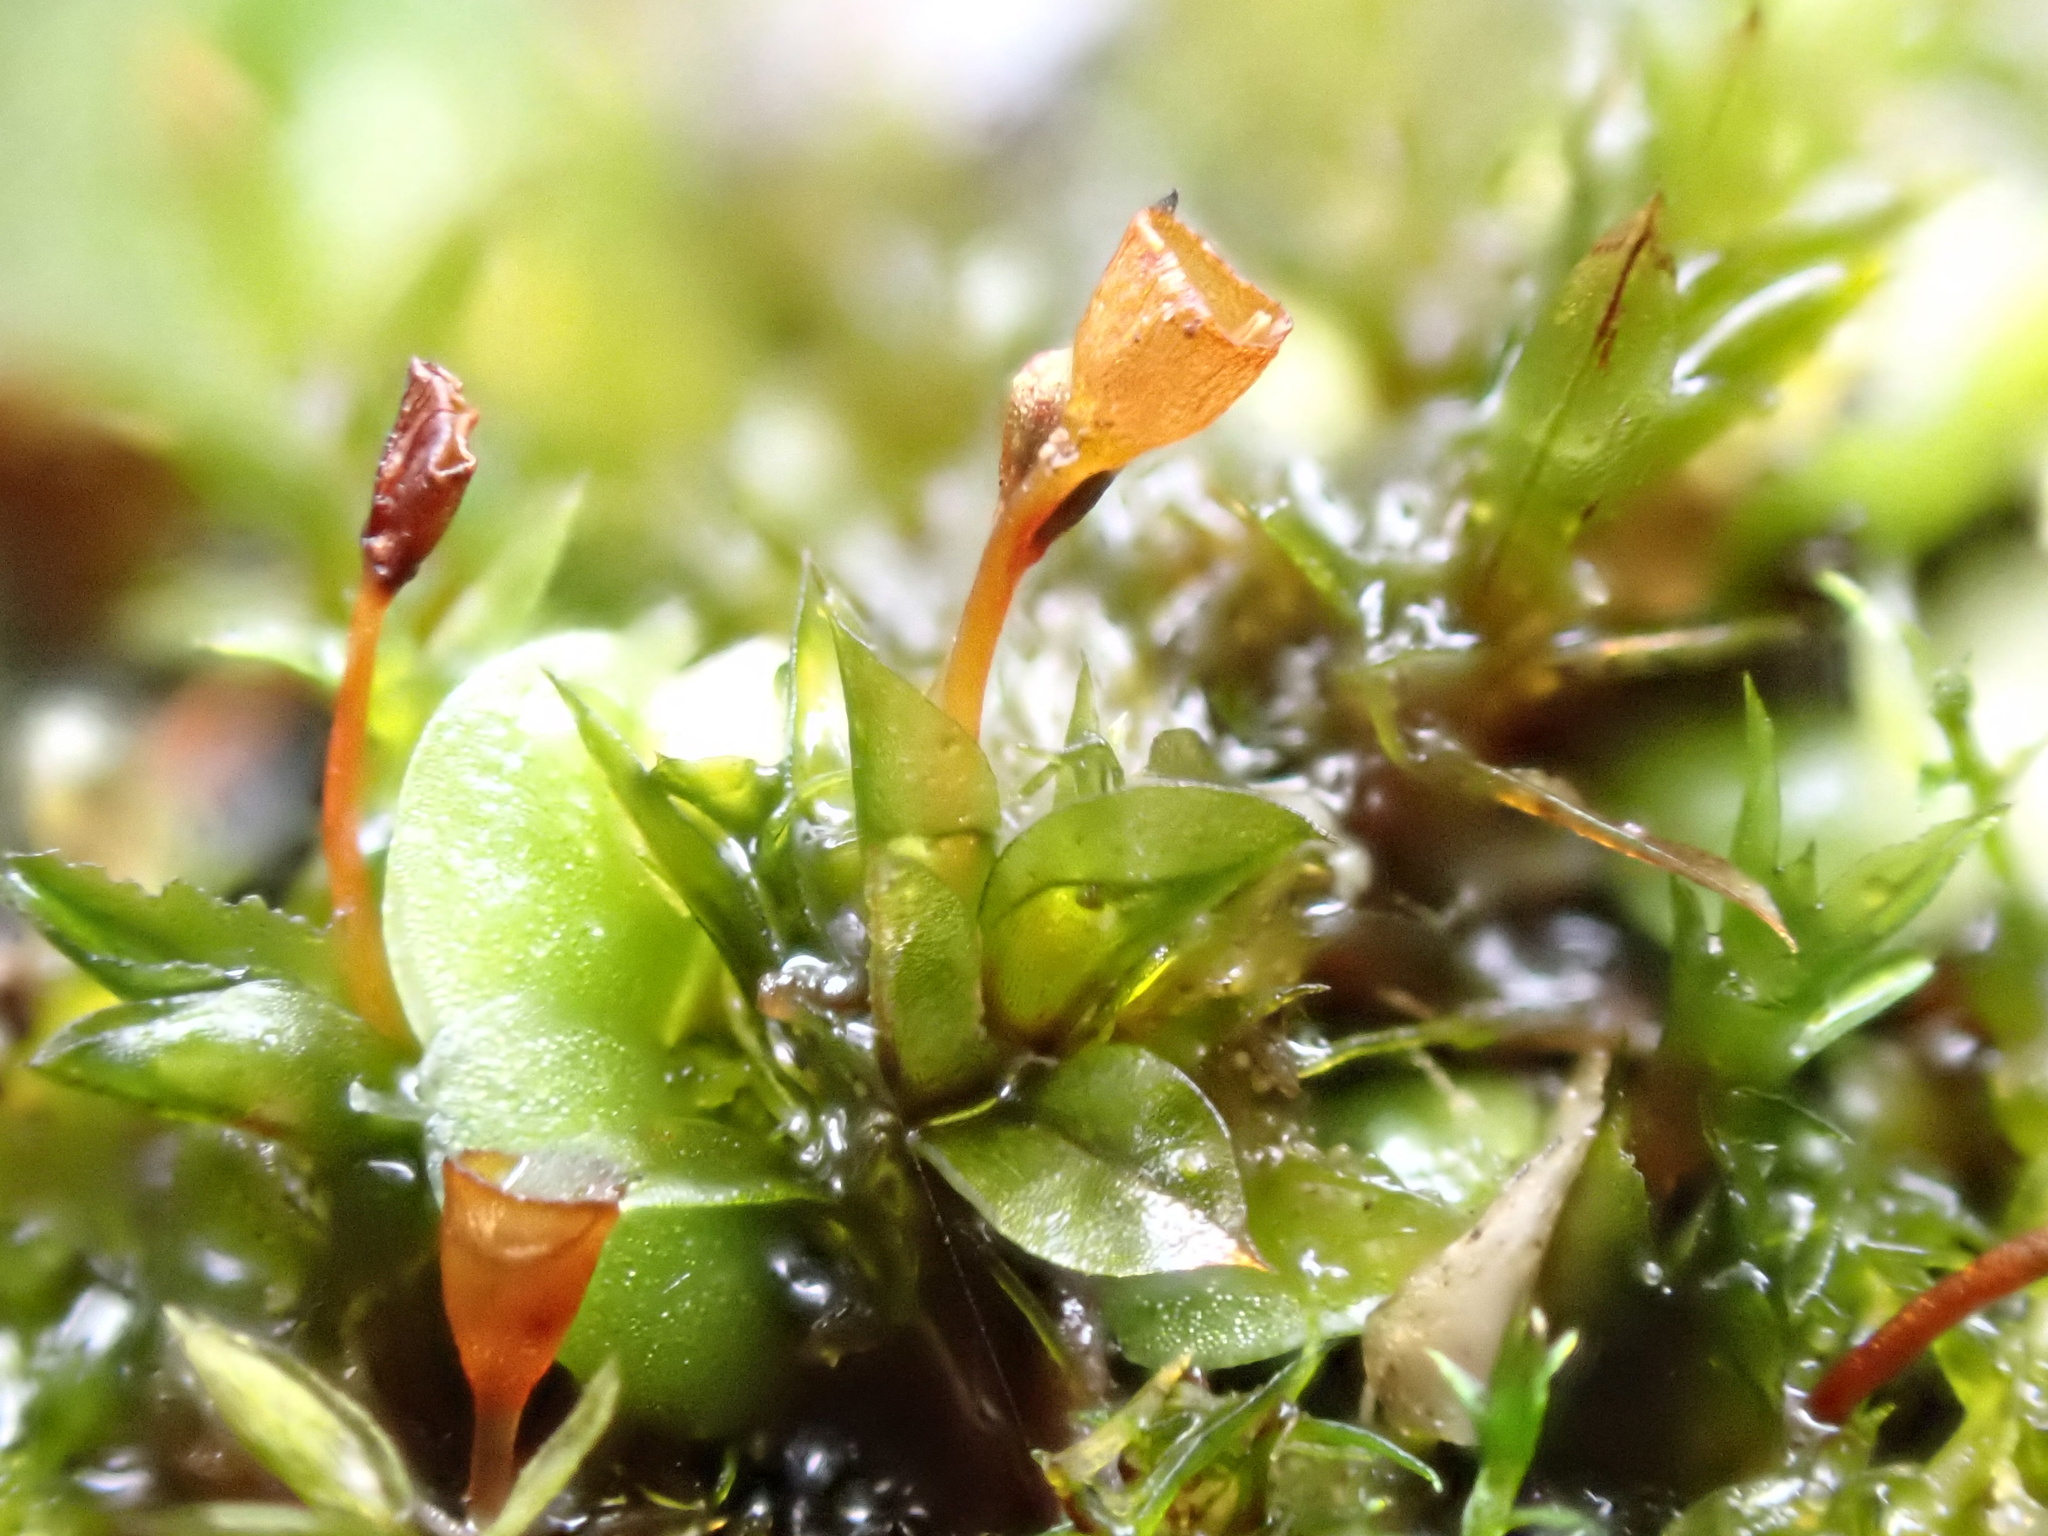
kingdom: Plantae
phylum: Bryophyta
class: Bryopsida
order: Pottiales
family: Pottiaceae
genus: Tortula
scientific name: Tortula truncata
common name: Truncated screw moss
